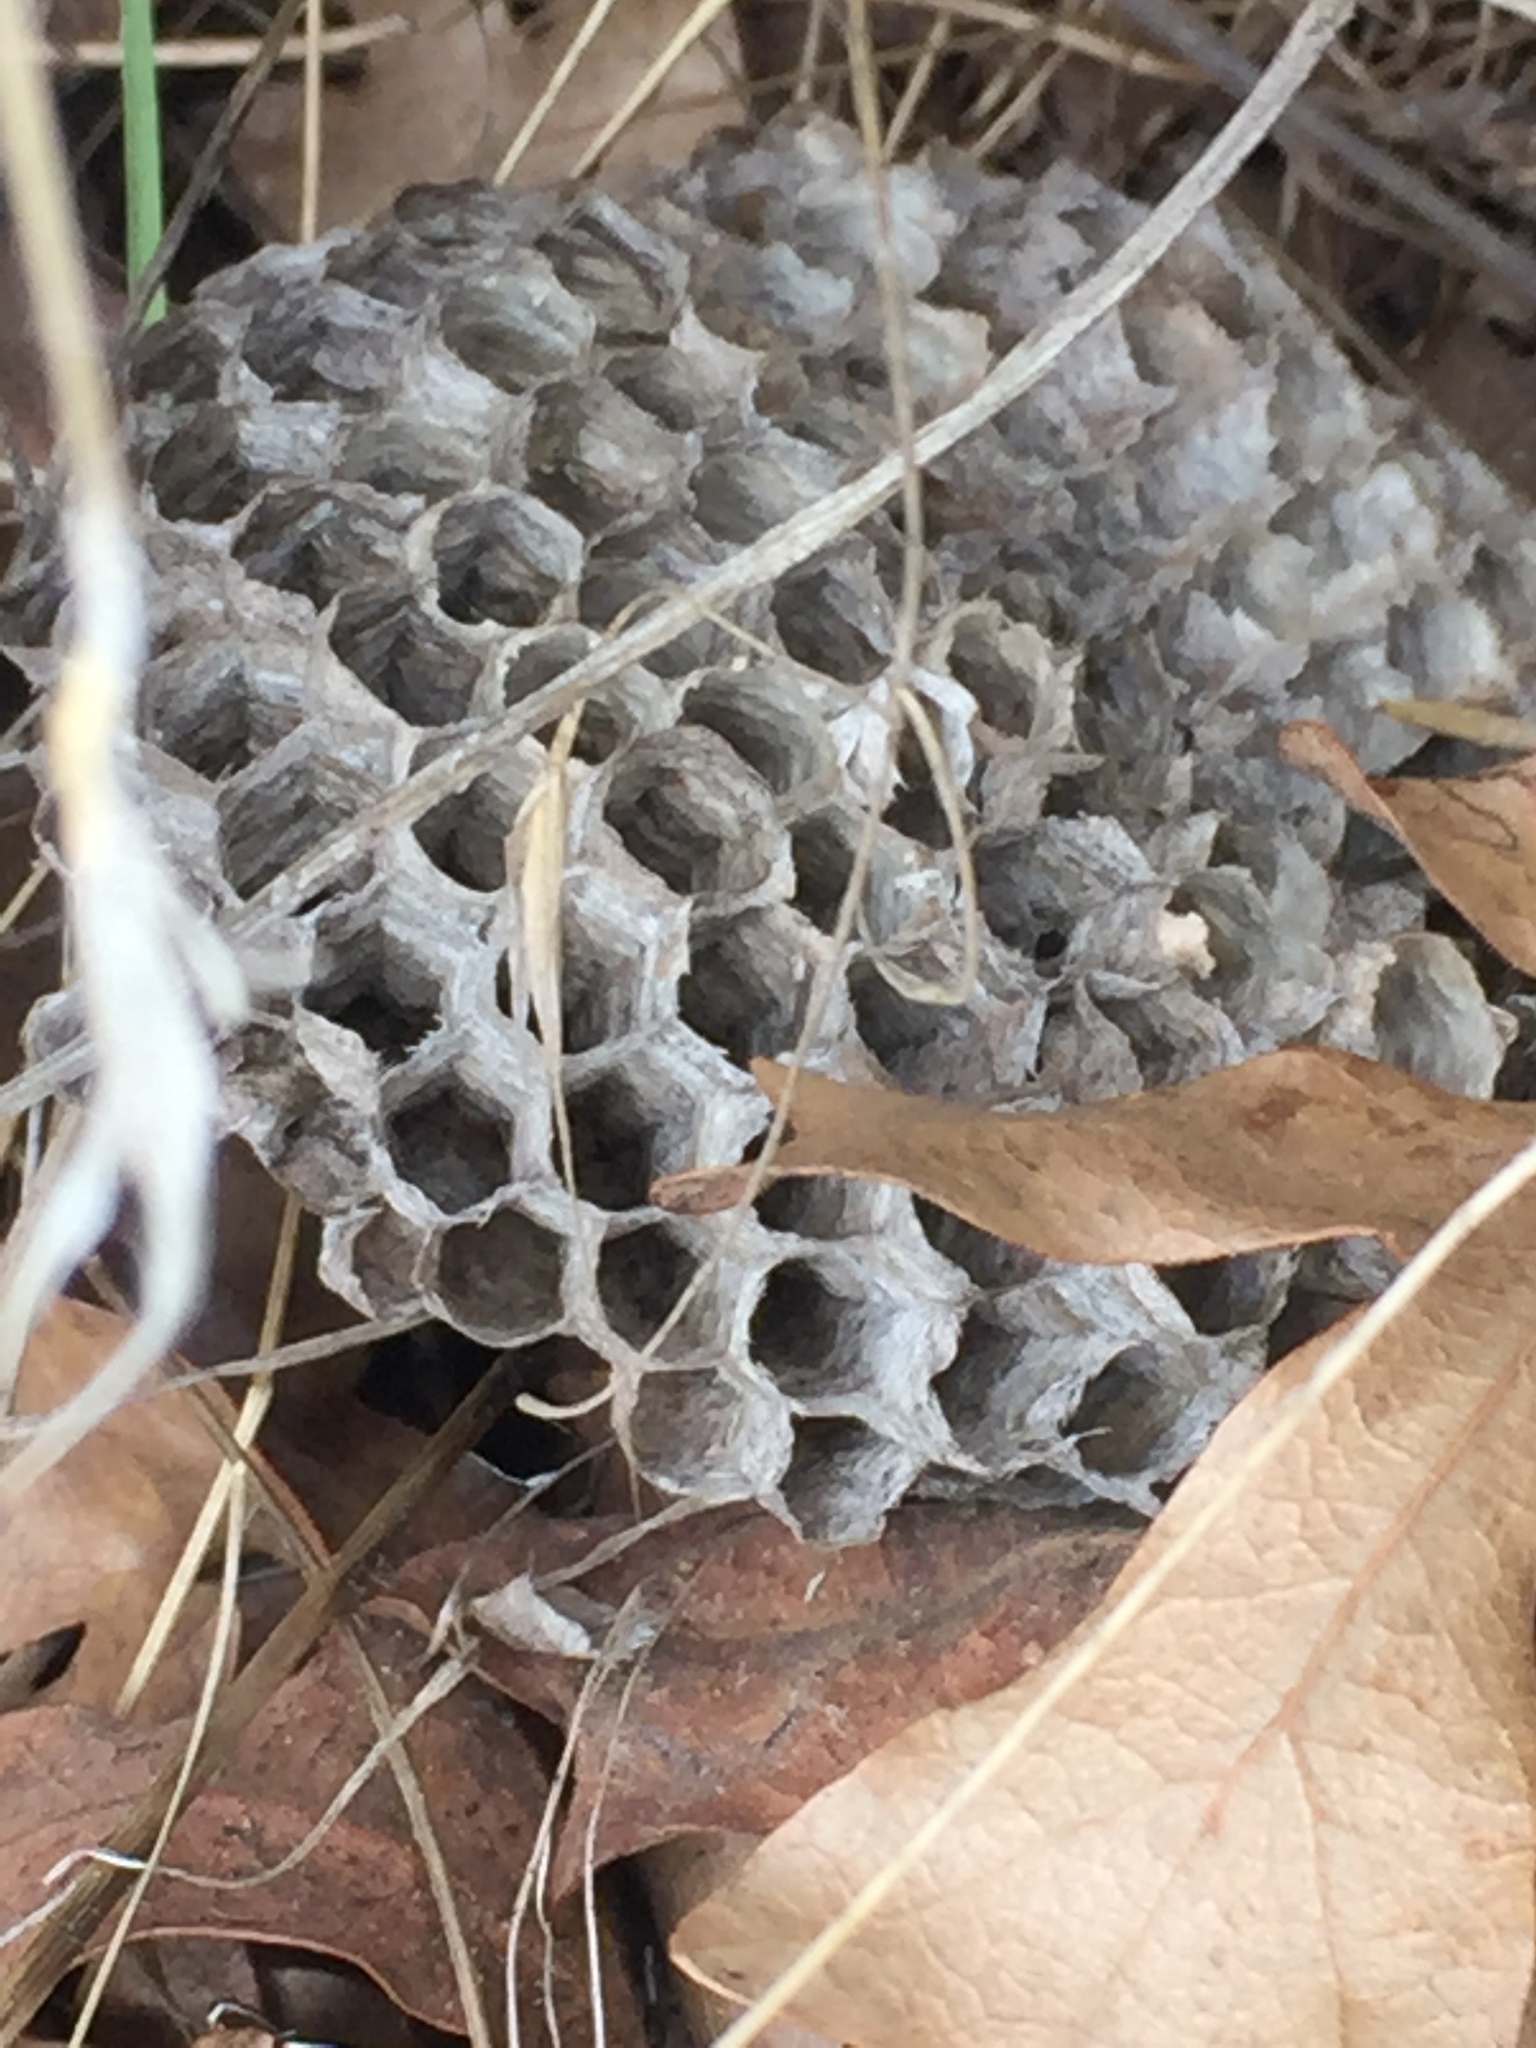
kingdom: Animalia
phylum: Arthropoda
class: Insecta
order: Hymenoptera
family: Eumenidae
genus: Polistes
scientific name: Polistes dominula
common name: Paper wasp
